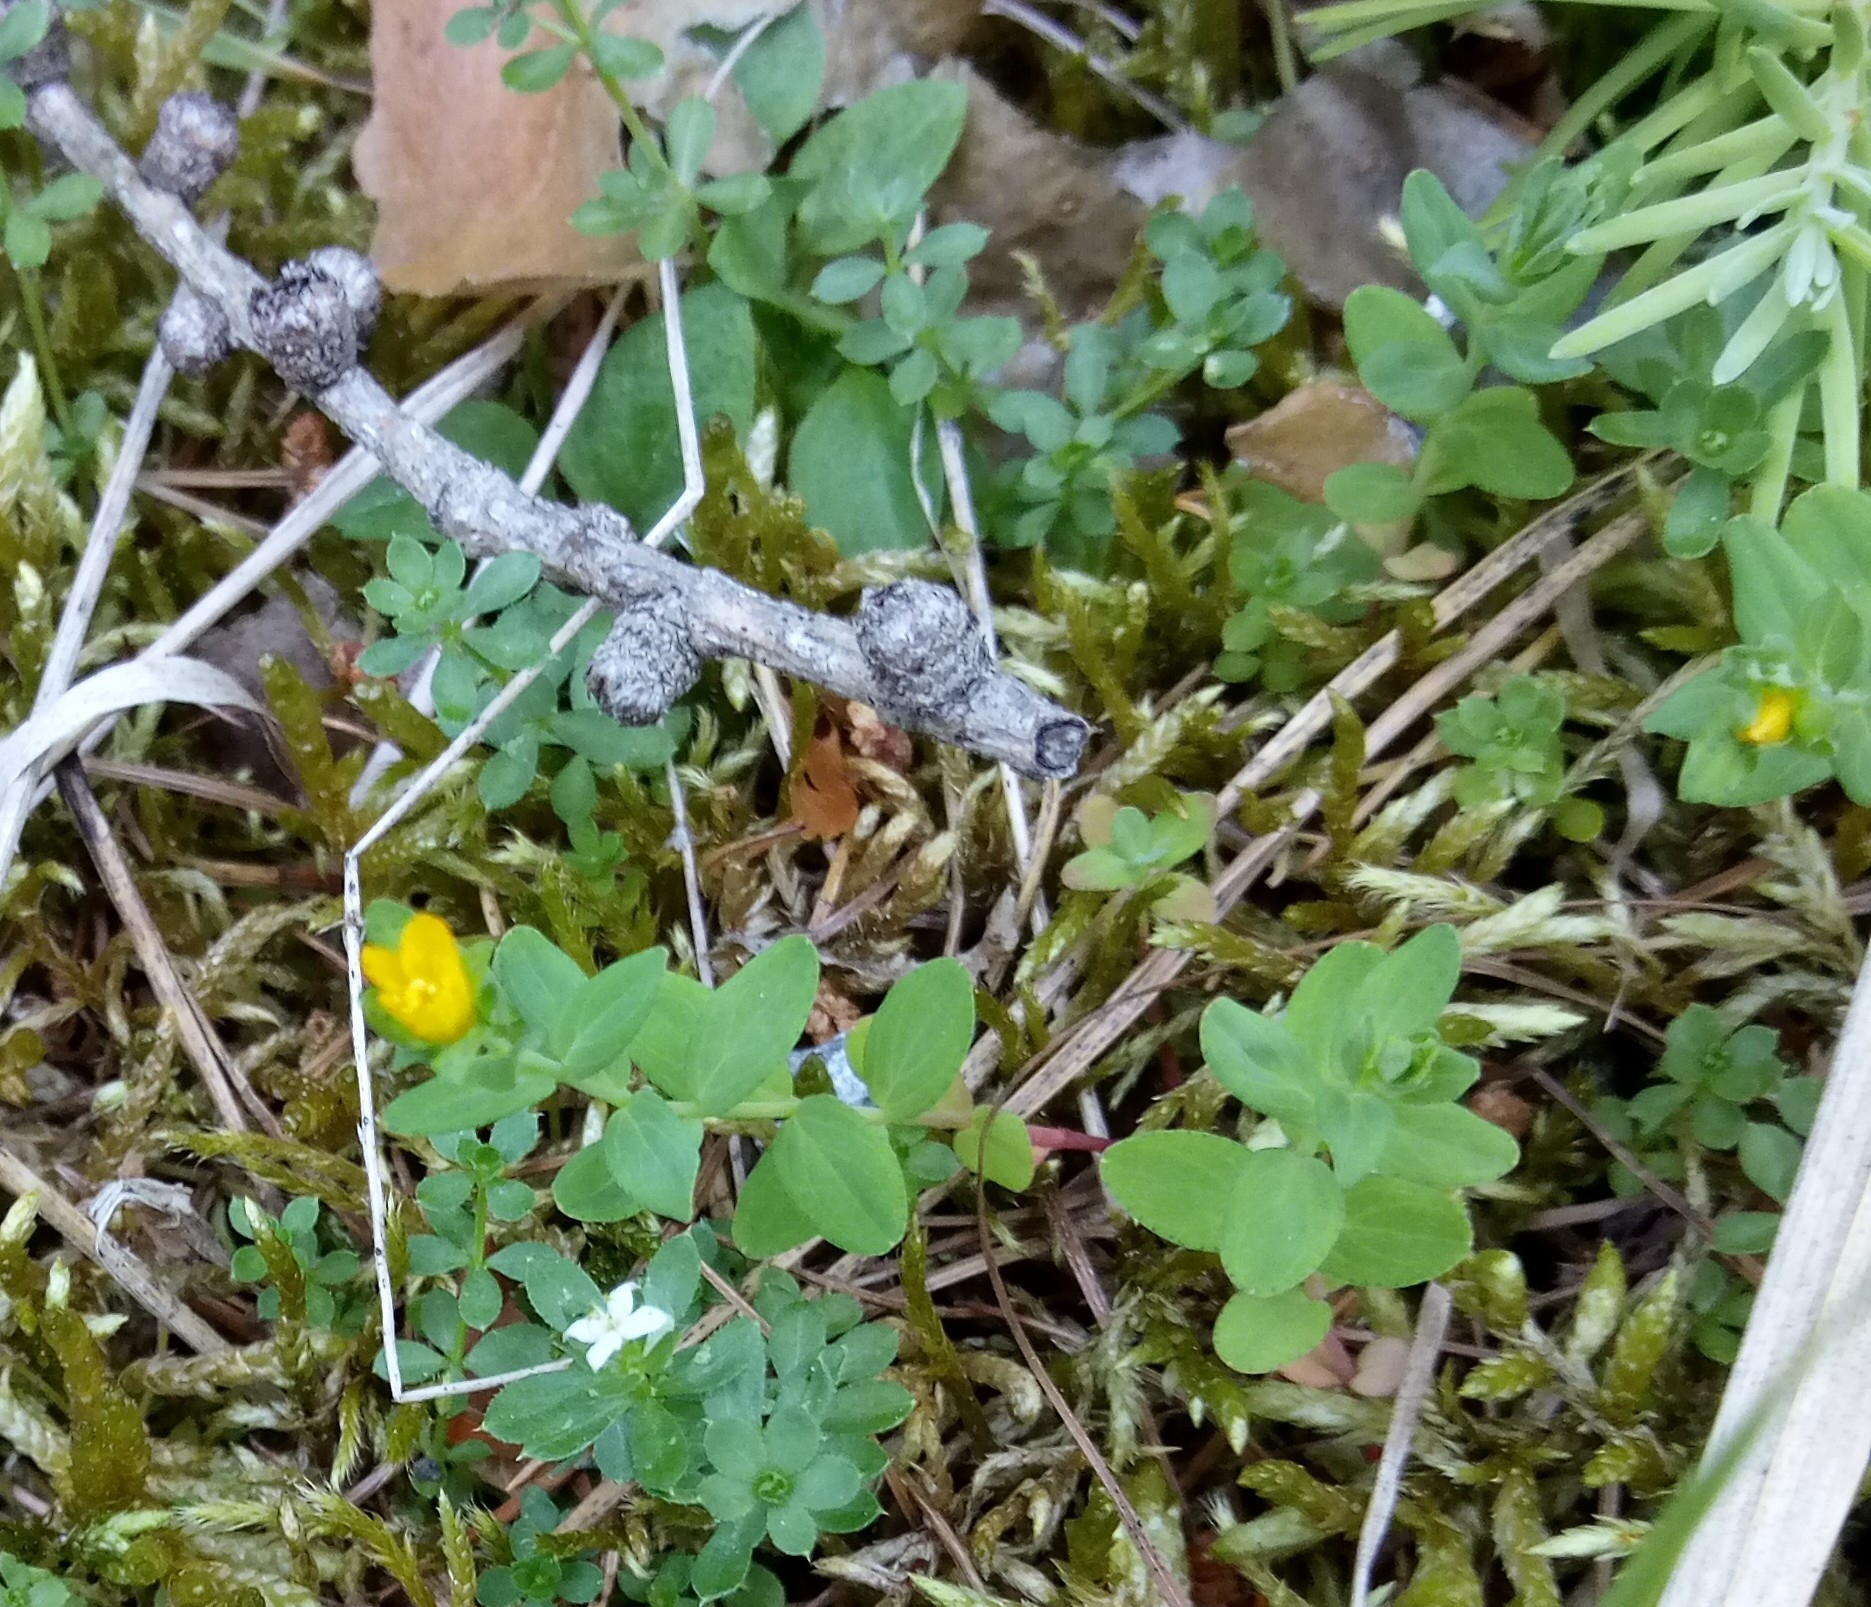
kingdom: Plantae
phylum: Tracheophyta
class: Magnoliopsida
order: Malpighiales
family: Hypericaceae
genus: Hypericum
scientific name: Hypericum humifusum
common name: Trailing st. john's-wort
